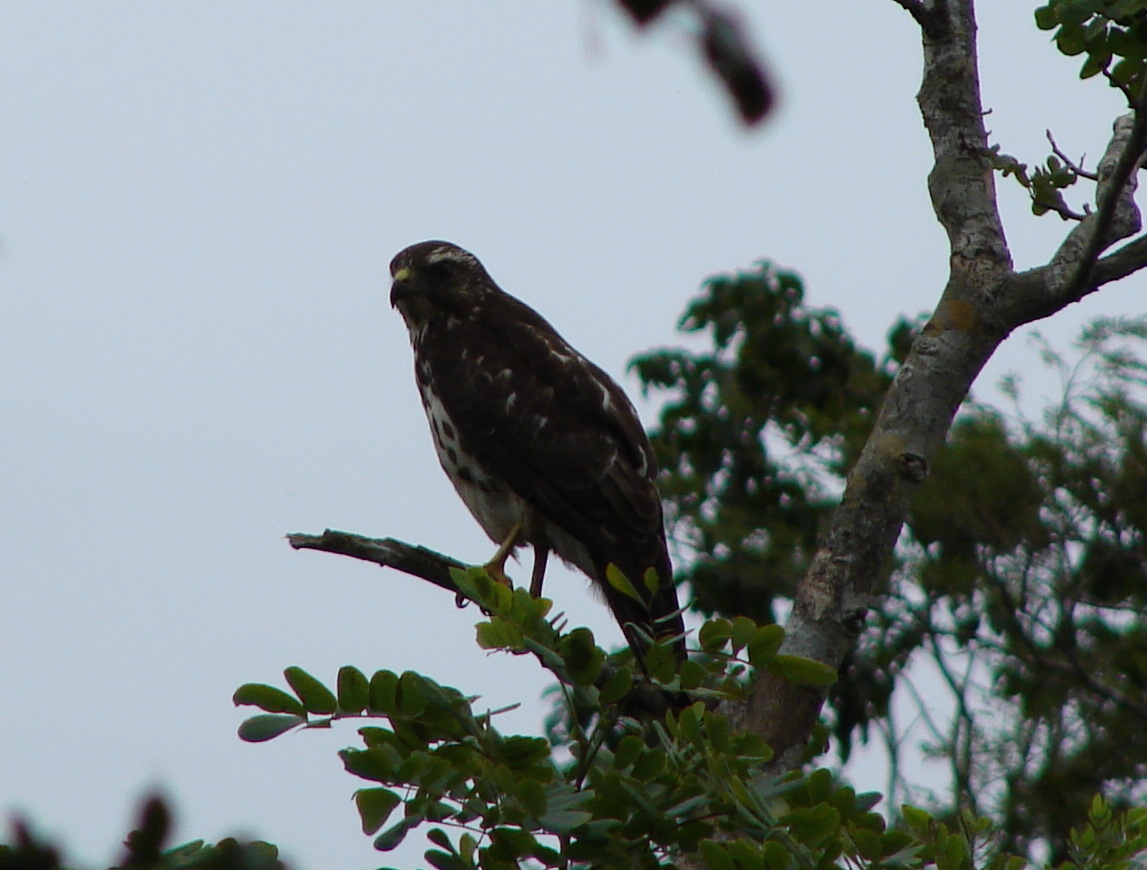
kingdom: Animalia
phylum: Chordata
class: Aves
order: Accipitriformes
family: Accipitridae
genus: Buteo
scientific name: Buteo platypterus
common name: Broad-winged hawk
